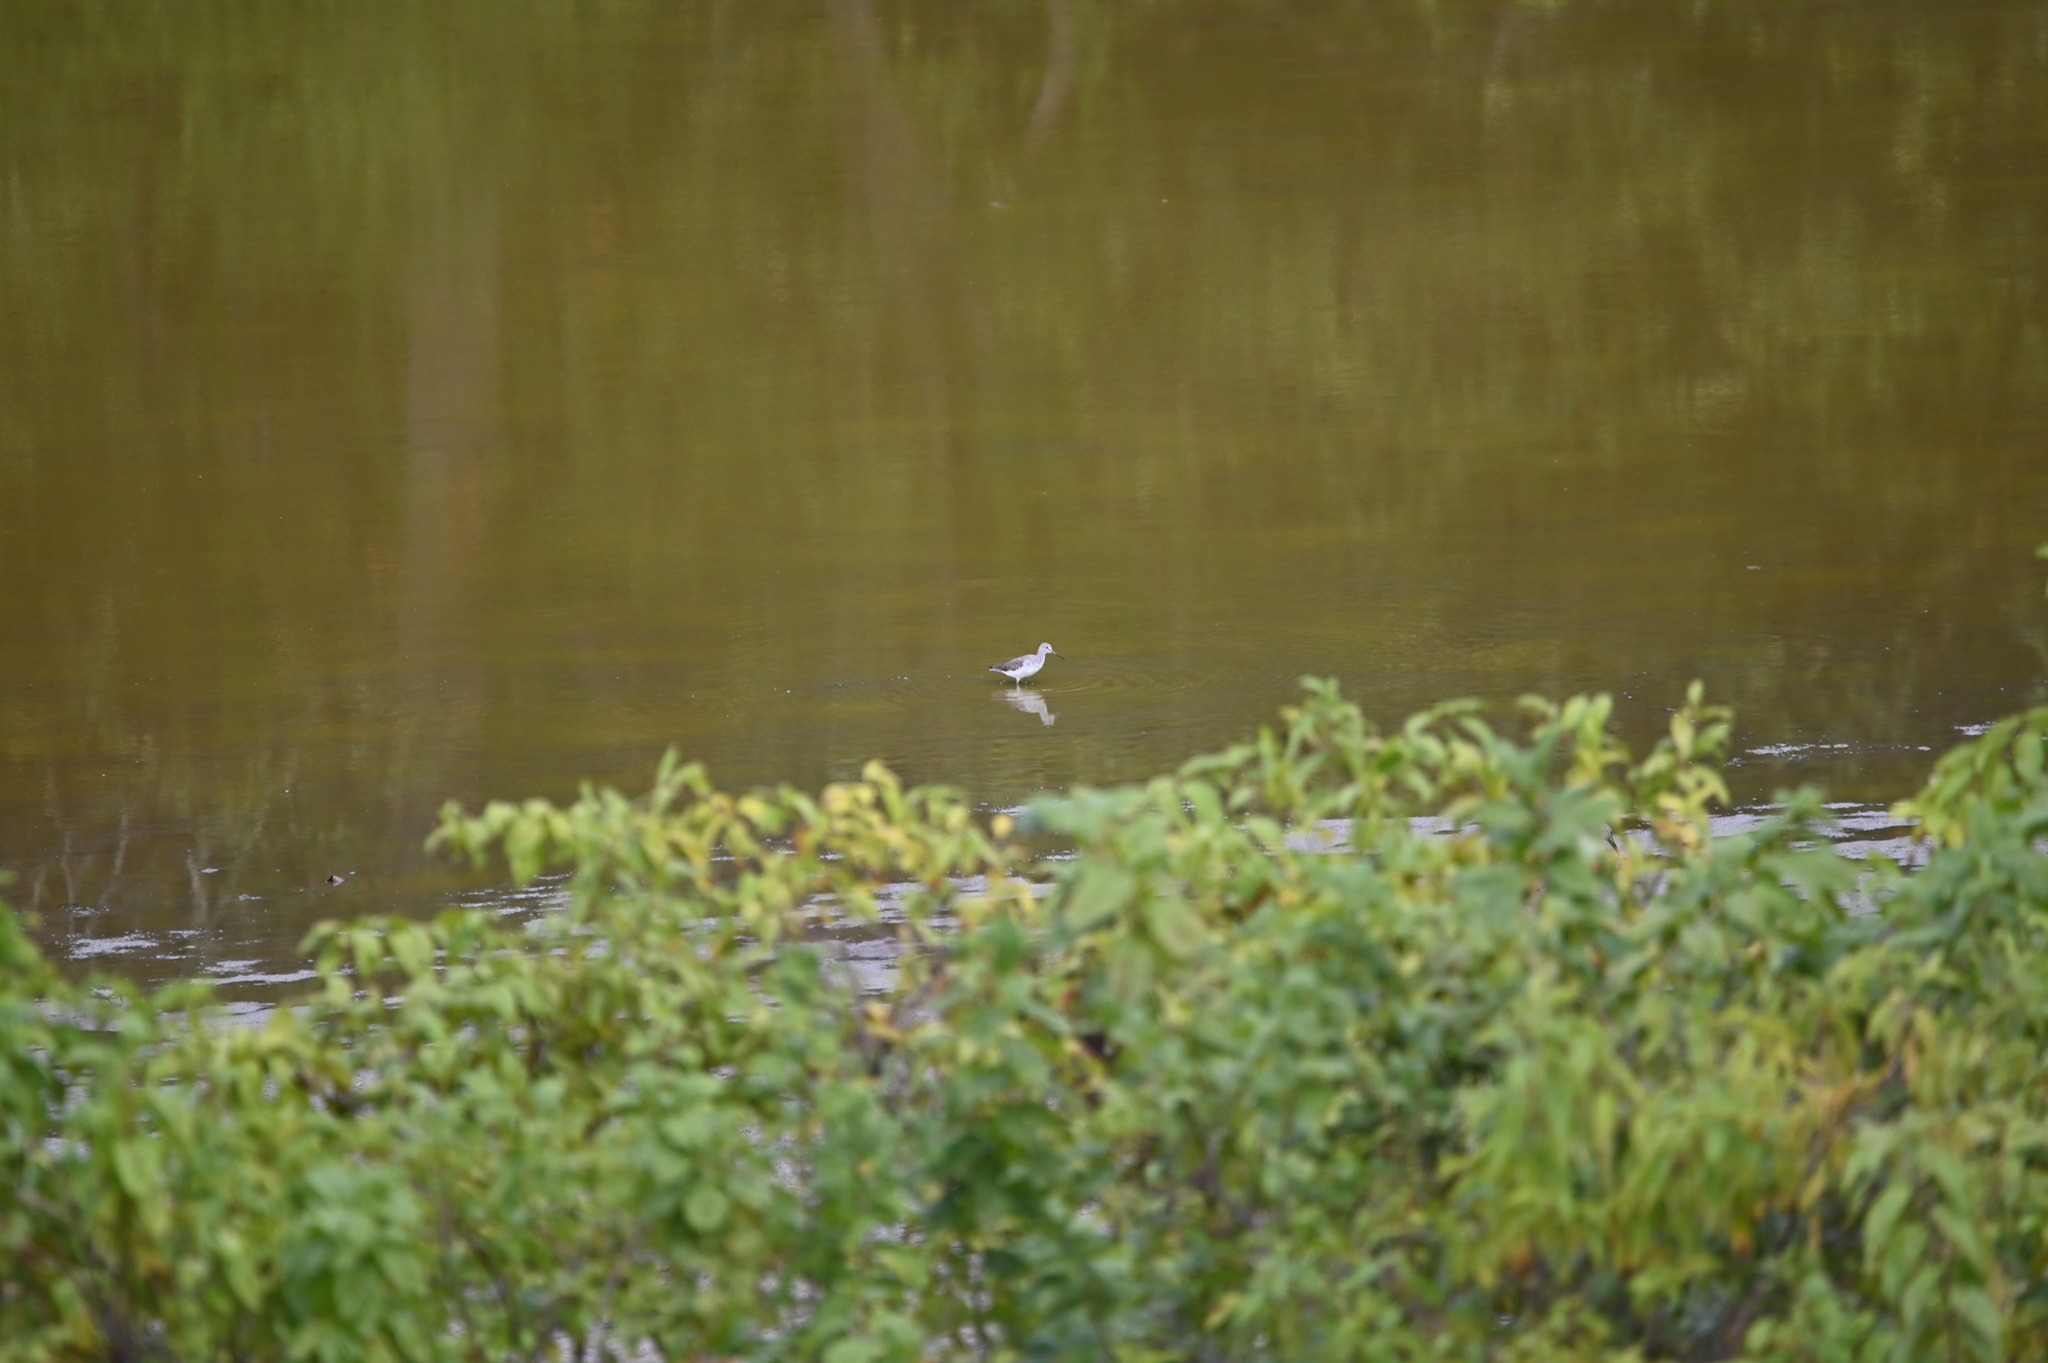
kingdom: Animalia
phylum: Chordata
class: Aves
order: Charadriiformes
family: Scolopacidae
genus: Tringa
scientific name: Tringa melanoleuca
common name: Greater yellowlegs
